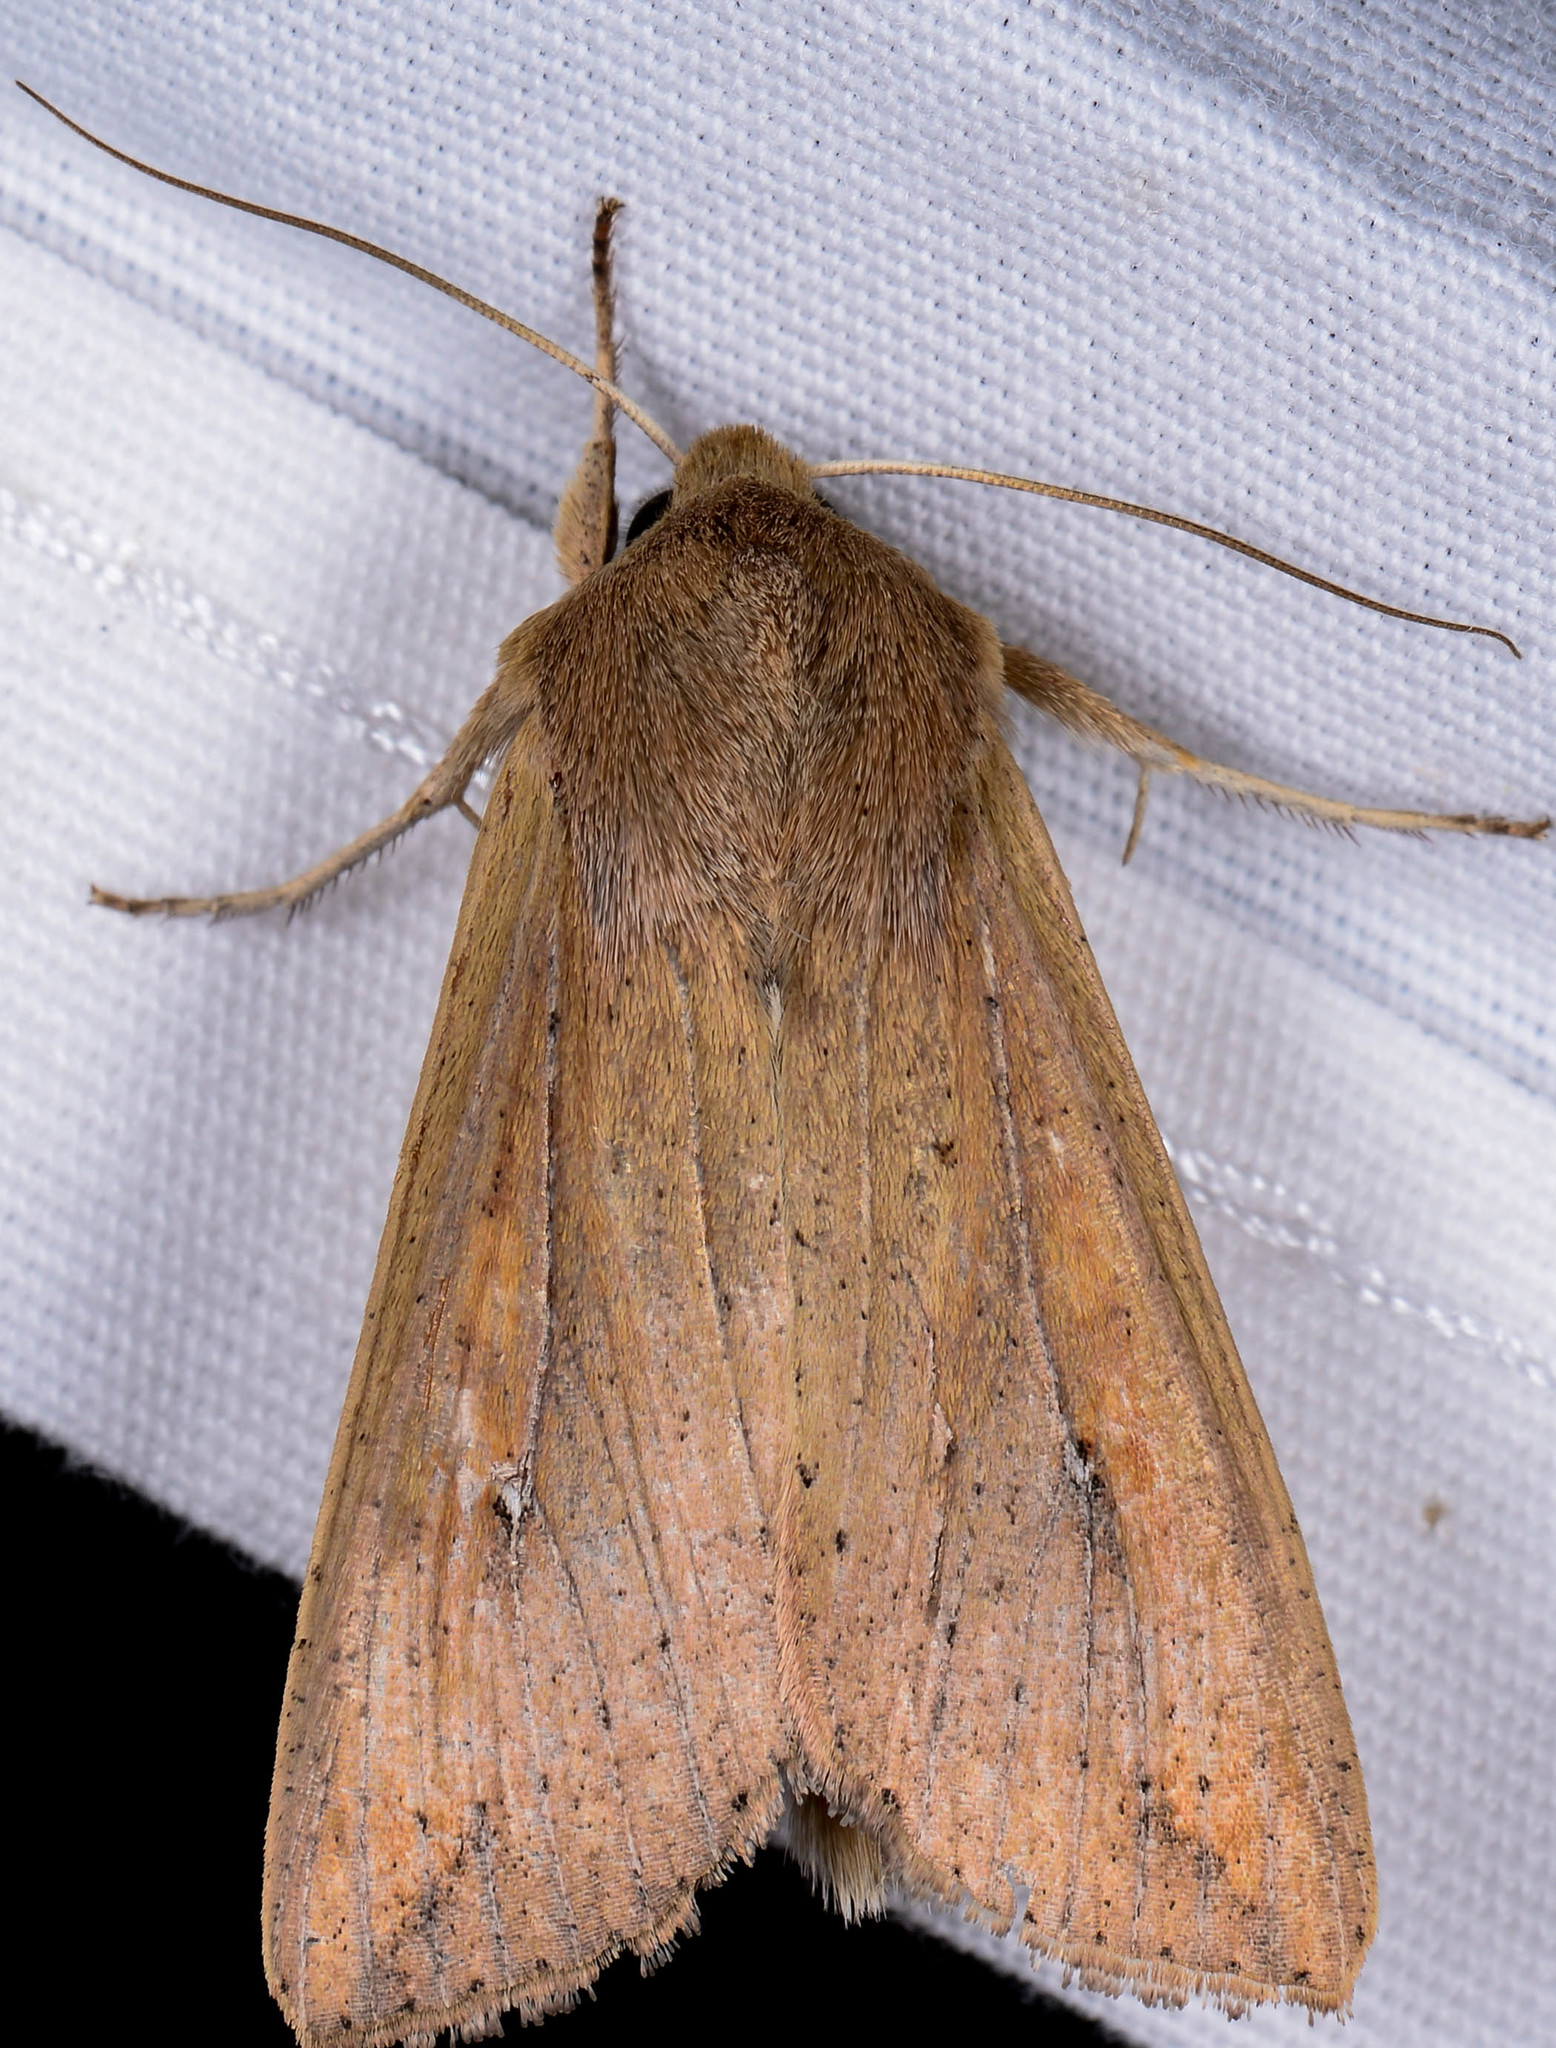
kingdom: Animalia
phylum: Arthropoda
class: Insecta
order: Lepidoptera
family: Noctuidae
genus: Mythimna
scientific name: Mythimna unipuncta
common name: White-speck
